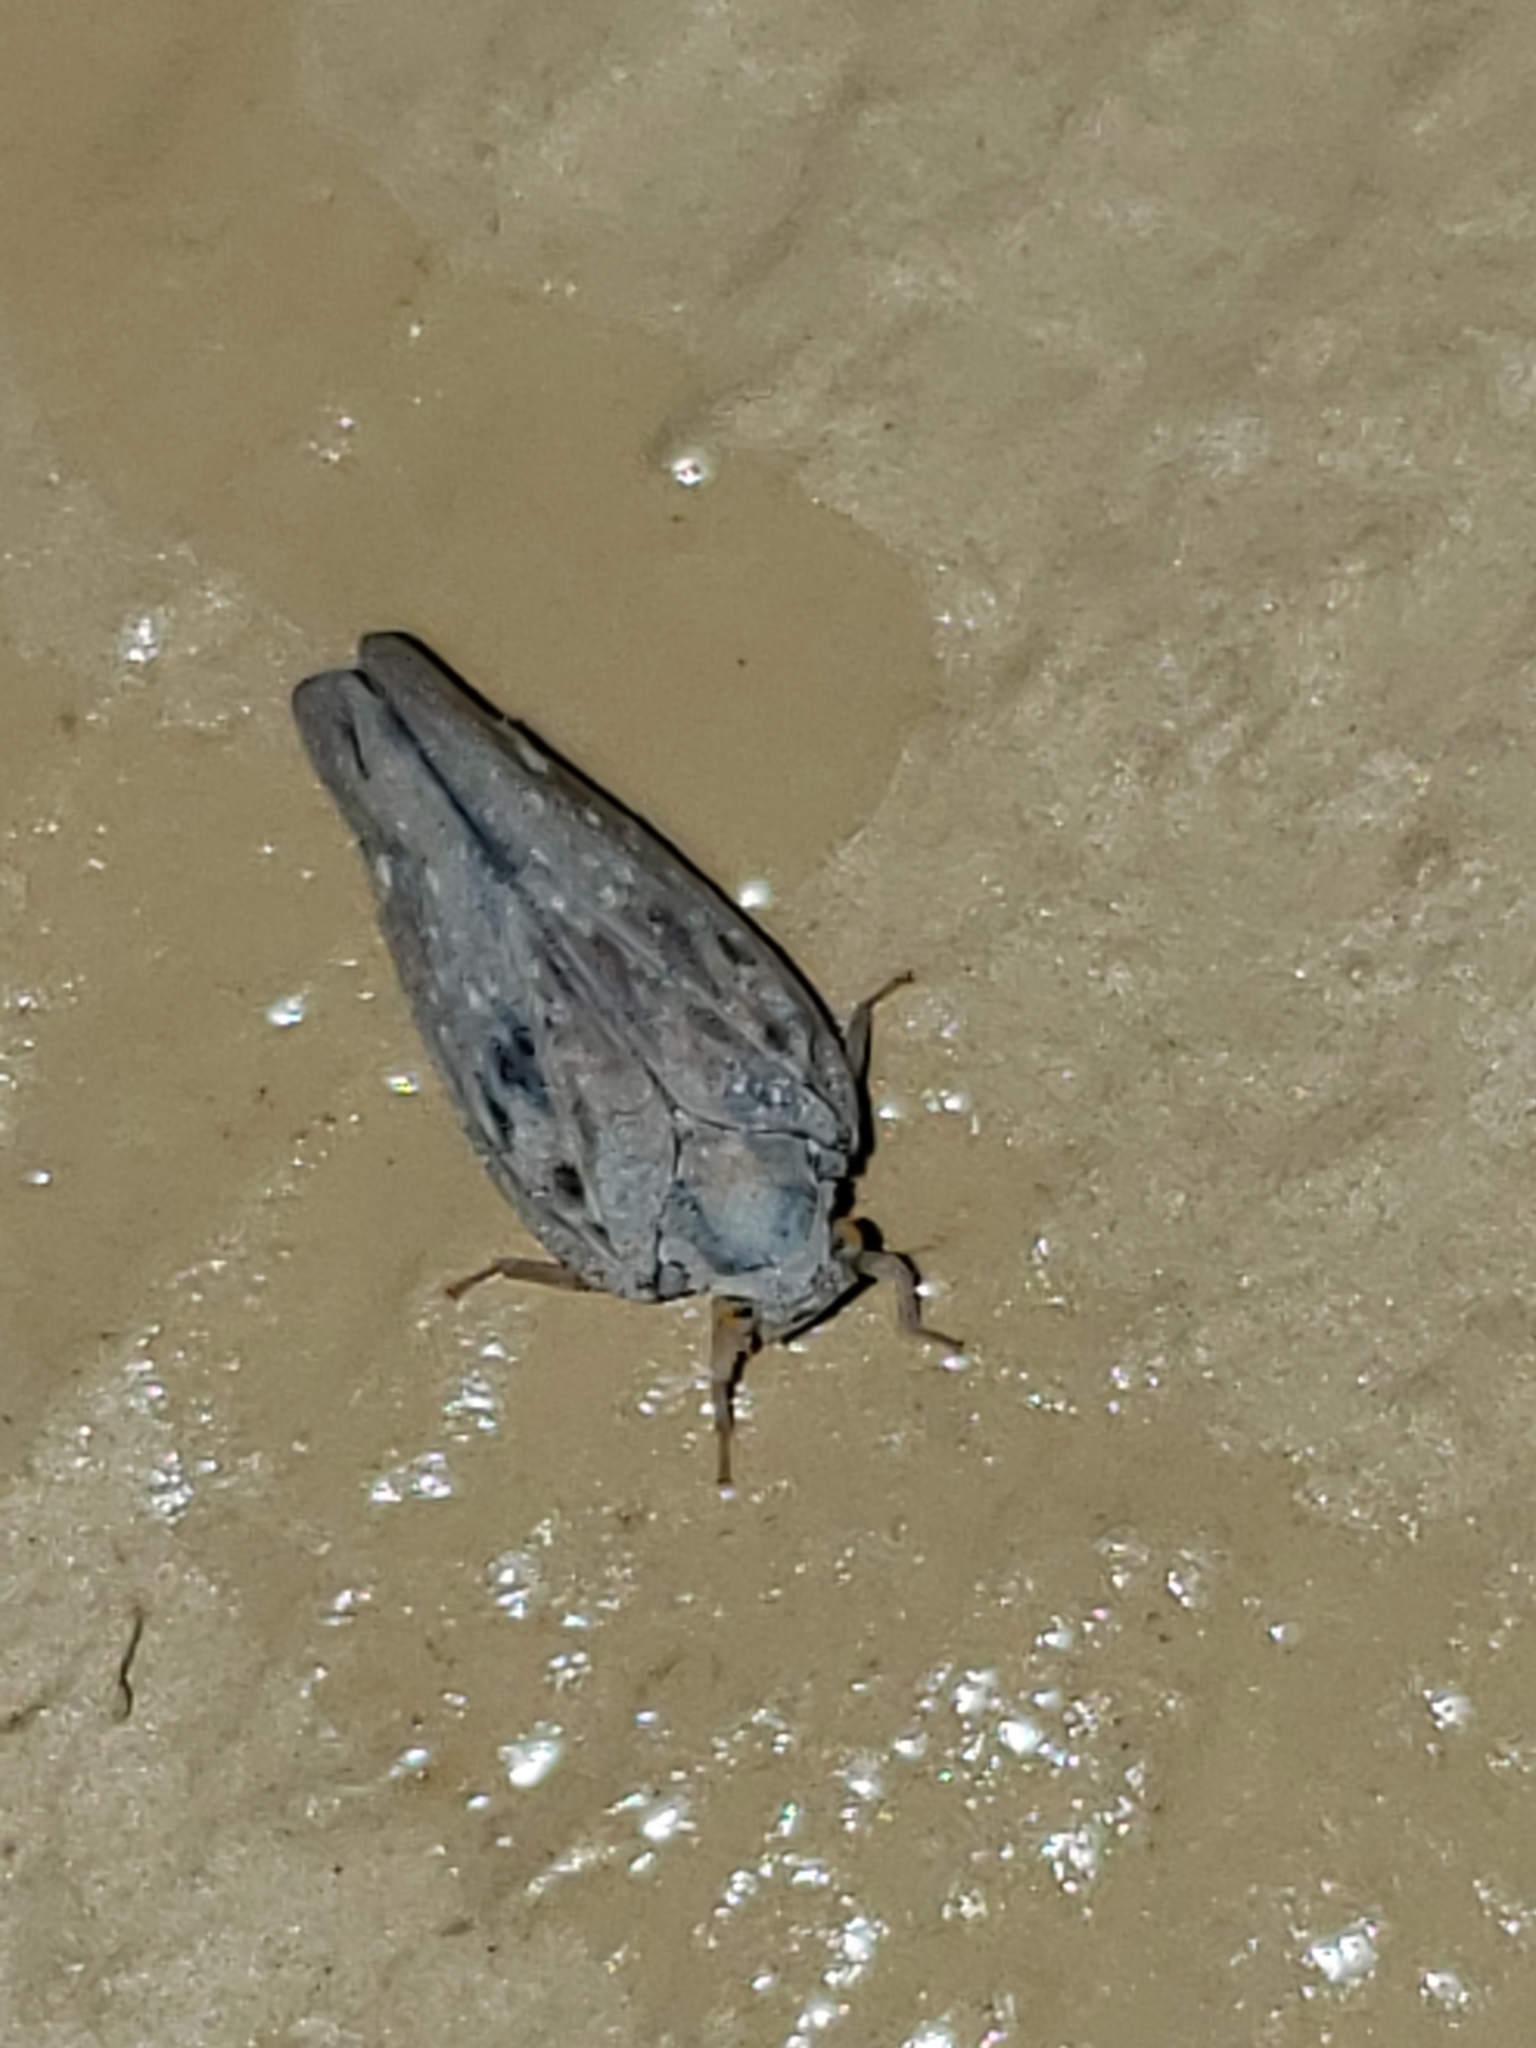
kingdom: Animalia
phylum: Arthropoda
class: Insecta
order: Hemiptera
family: Flatidae
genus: Metcalfa
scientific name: Metcalfa pruinosa
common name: Citrus flatid planthopper
